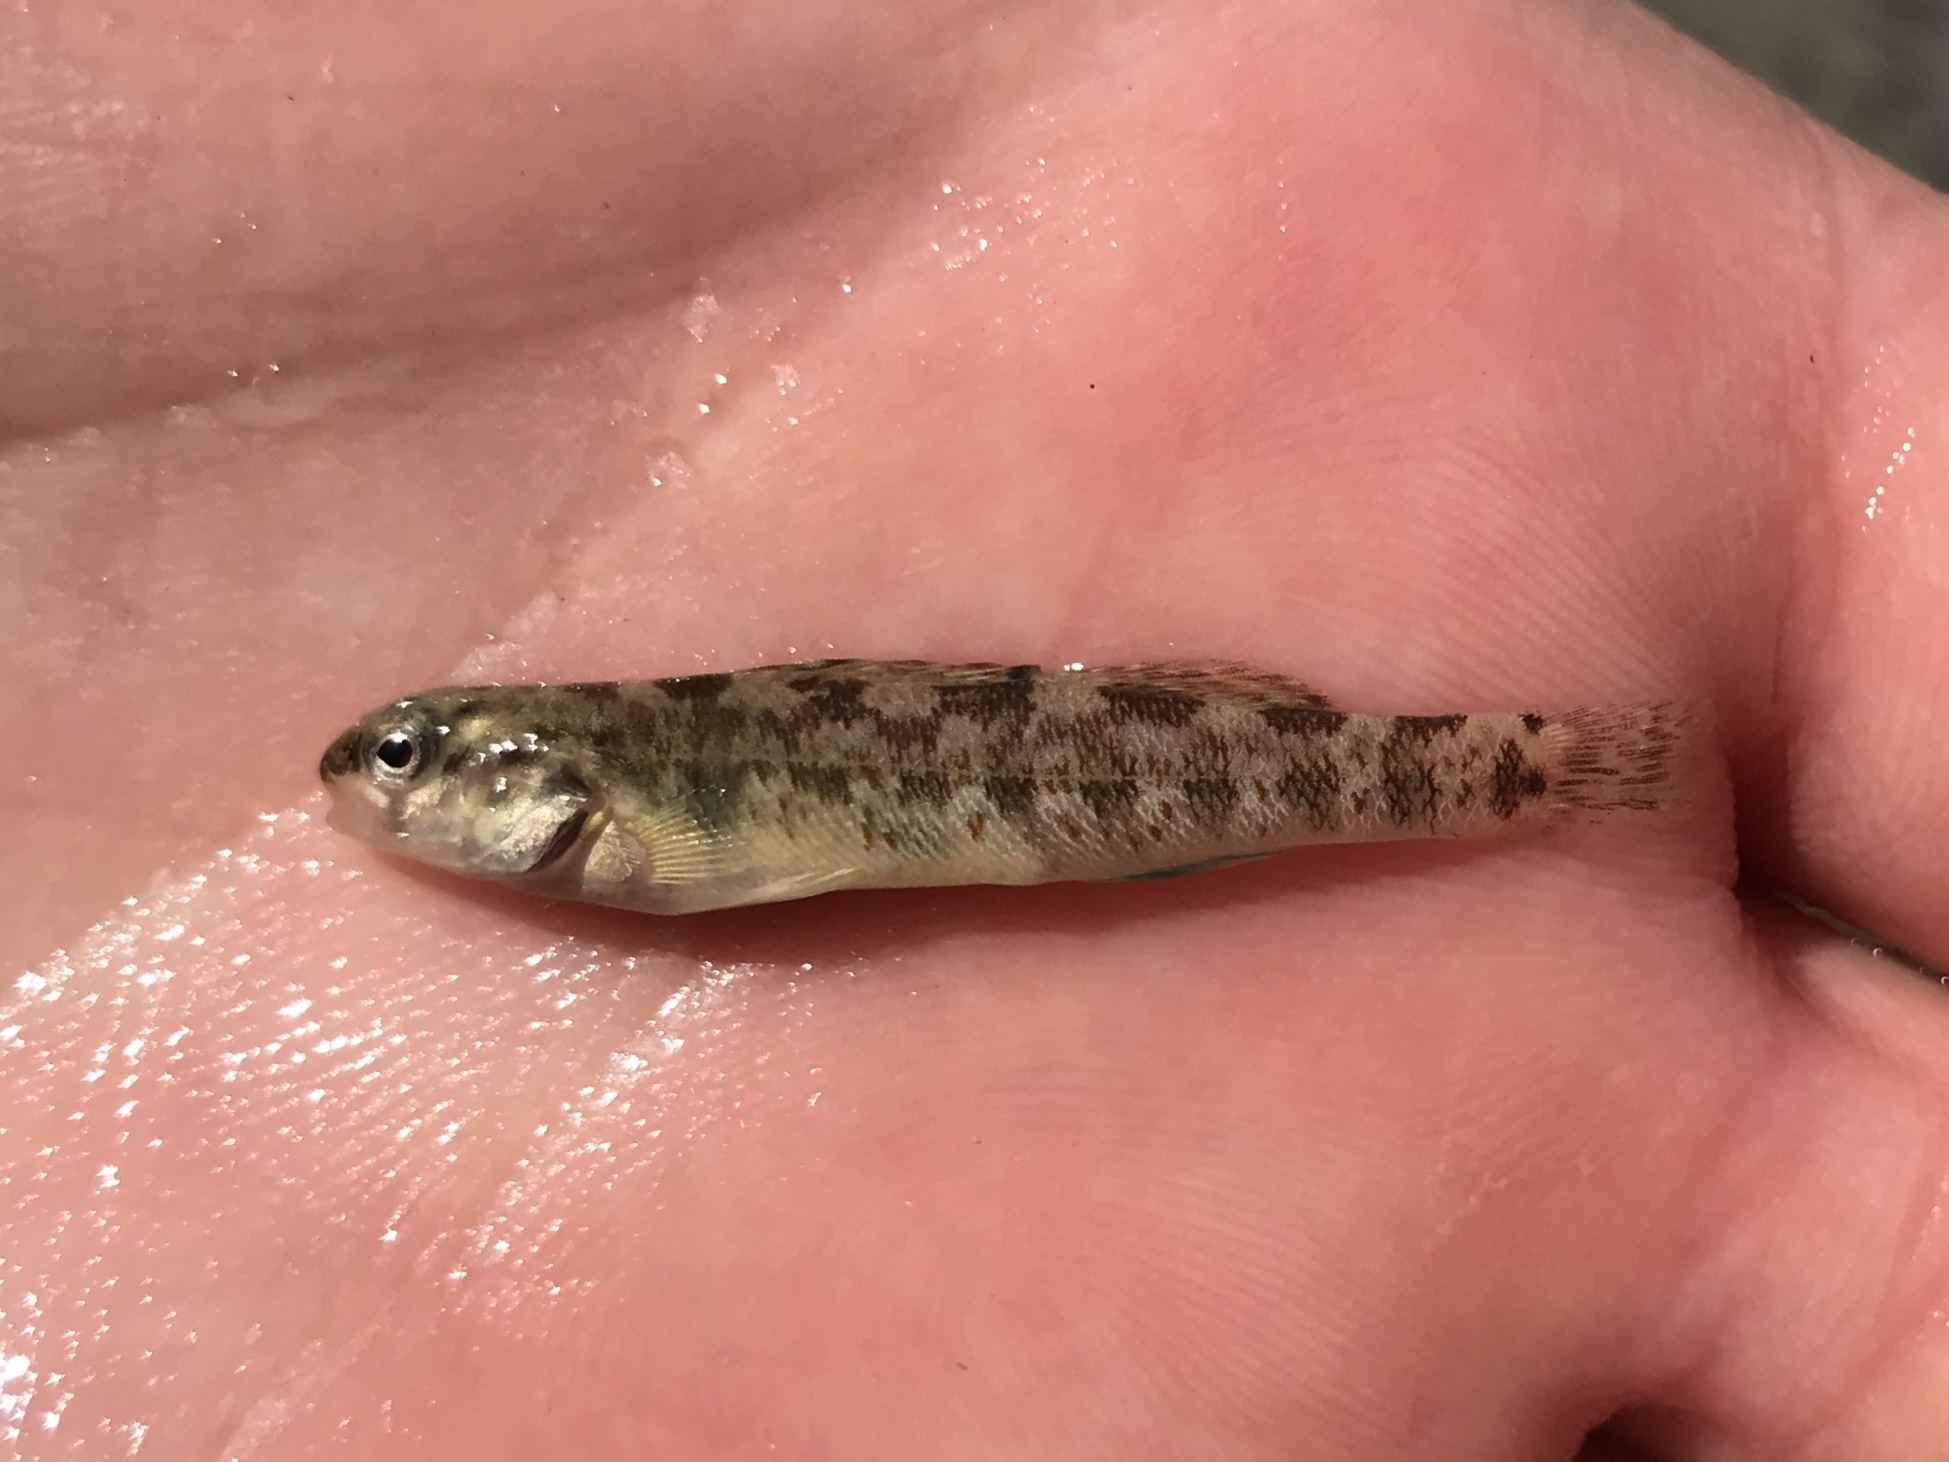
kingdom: Animalia
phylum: Chordata
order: Perciformes
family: Percidae
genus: Etheostoma
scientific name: Etheostoma lepidum
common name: Greenthroat darter
